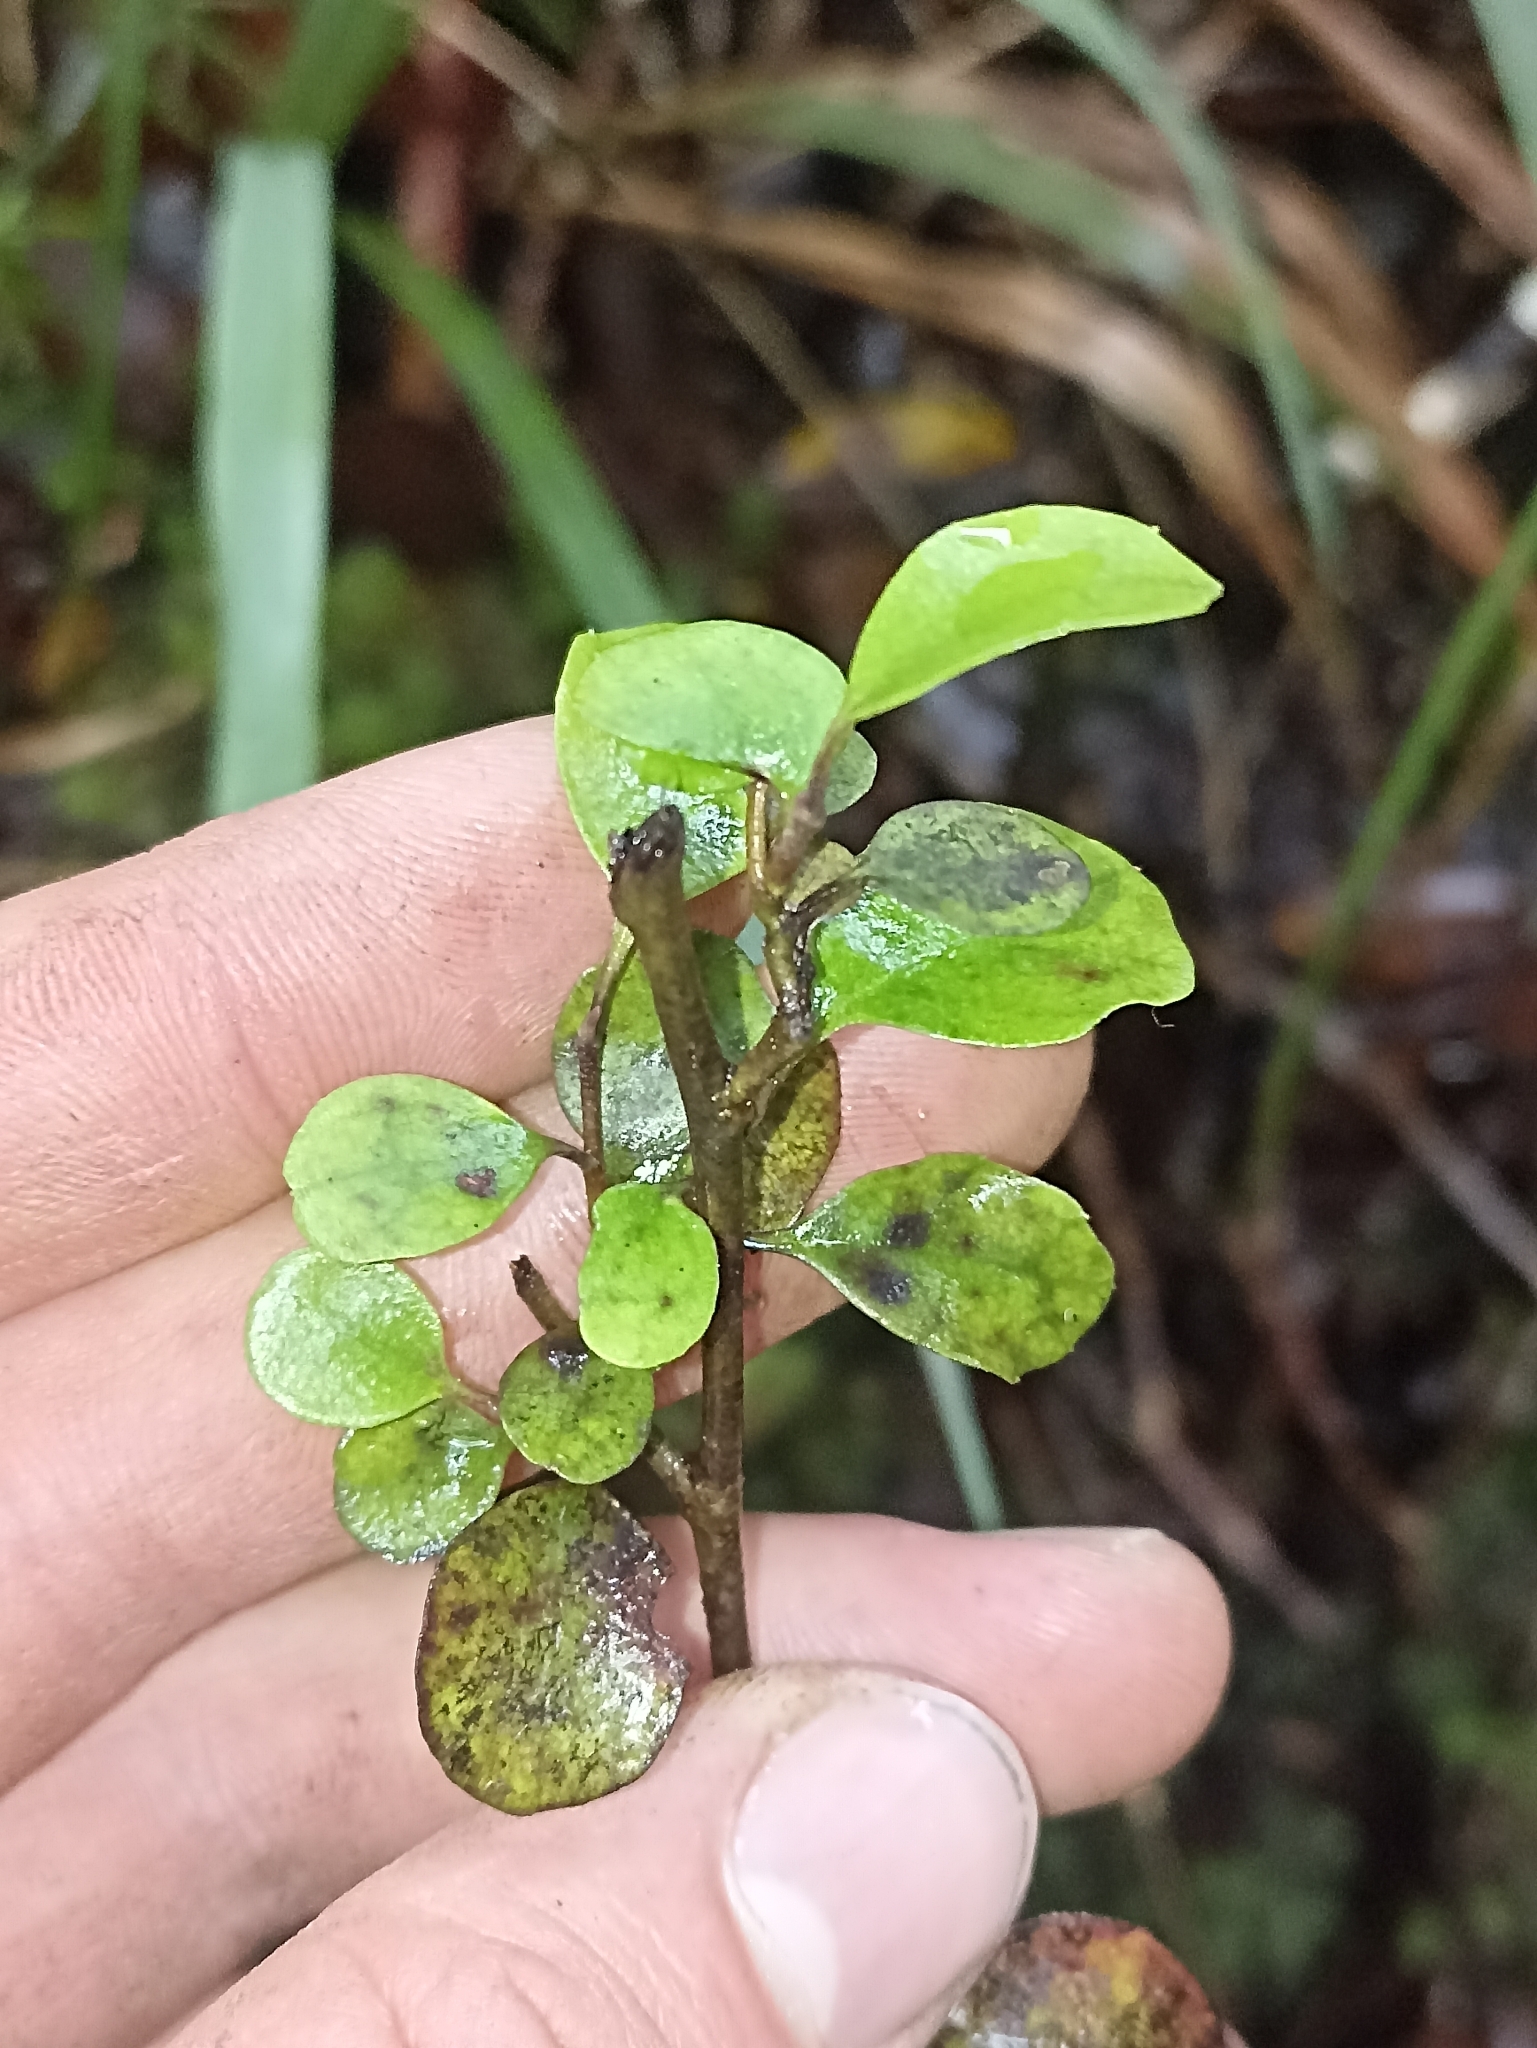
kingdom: Plantae
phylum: Tracheophyta
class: Magnoliopsida
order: Paracryphiales
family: Paracryphiaceae
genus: Quintinia
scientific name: Quintinia serrata
